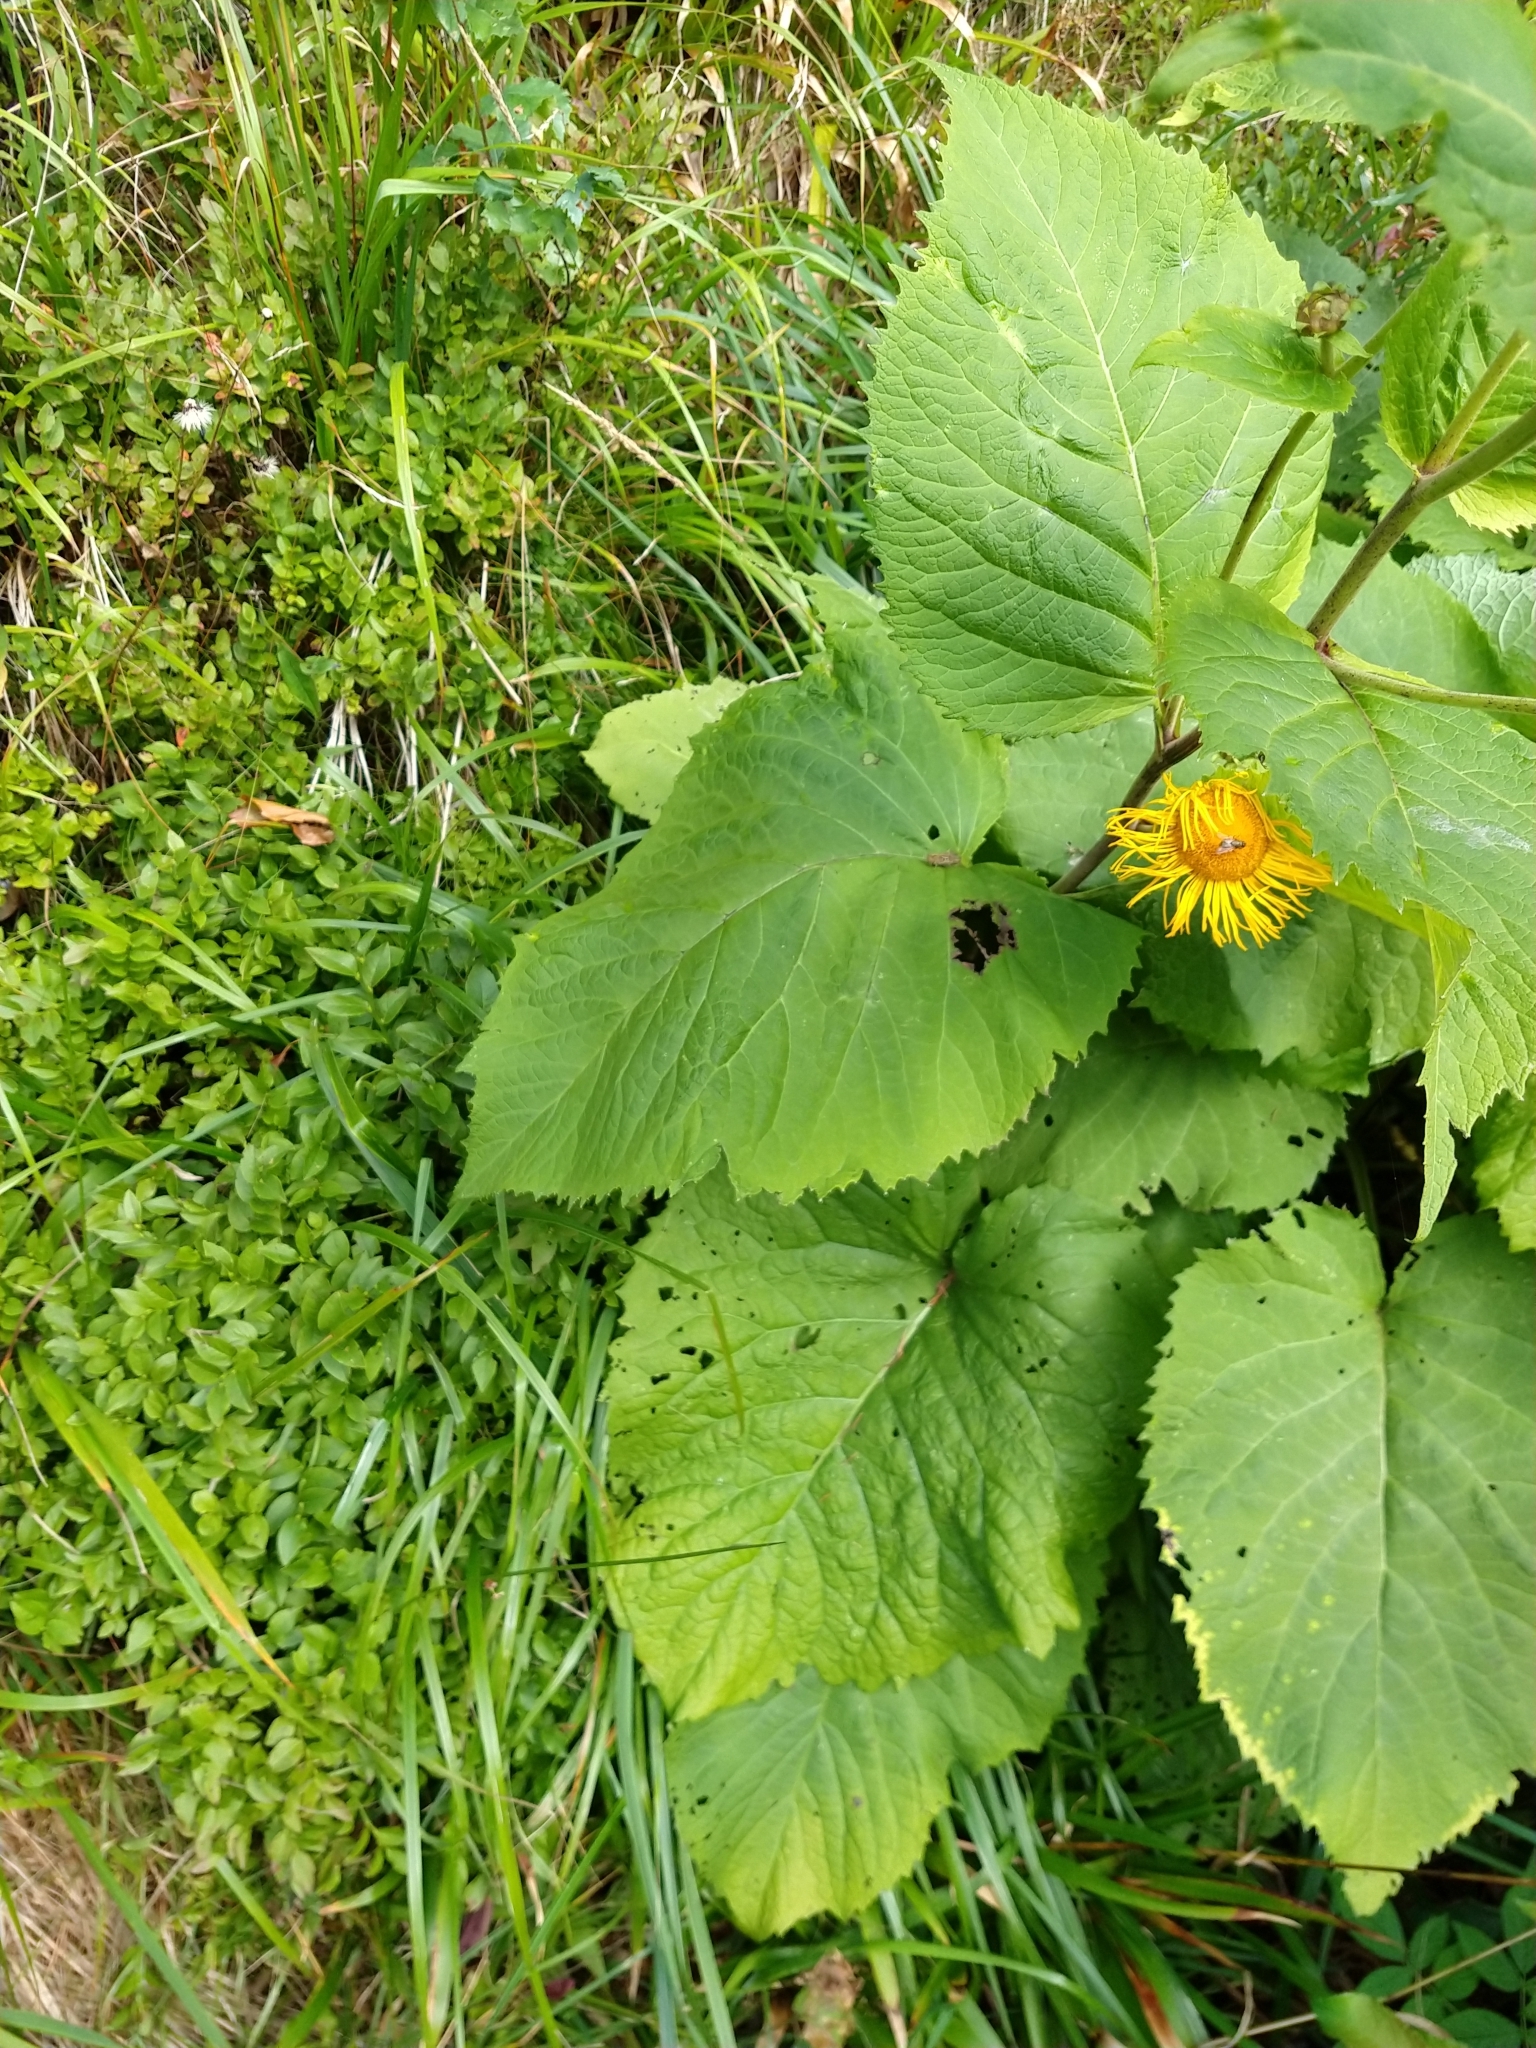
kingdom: Plantae
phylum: Tracheophyta
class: Magnoliopsida
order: Asterales
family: Asteraceae
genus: Telekia
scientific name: Telekia speciosa
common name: Yellow oxeye
